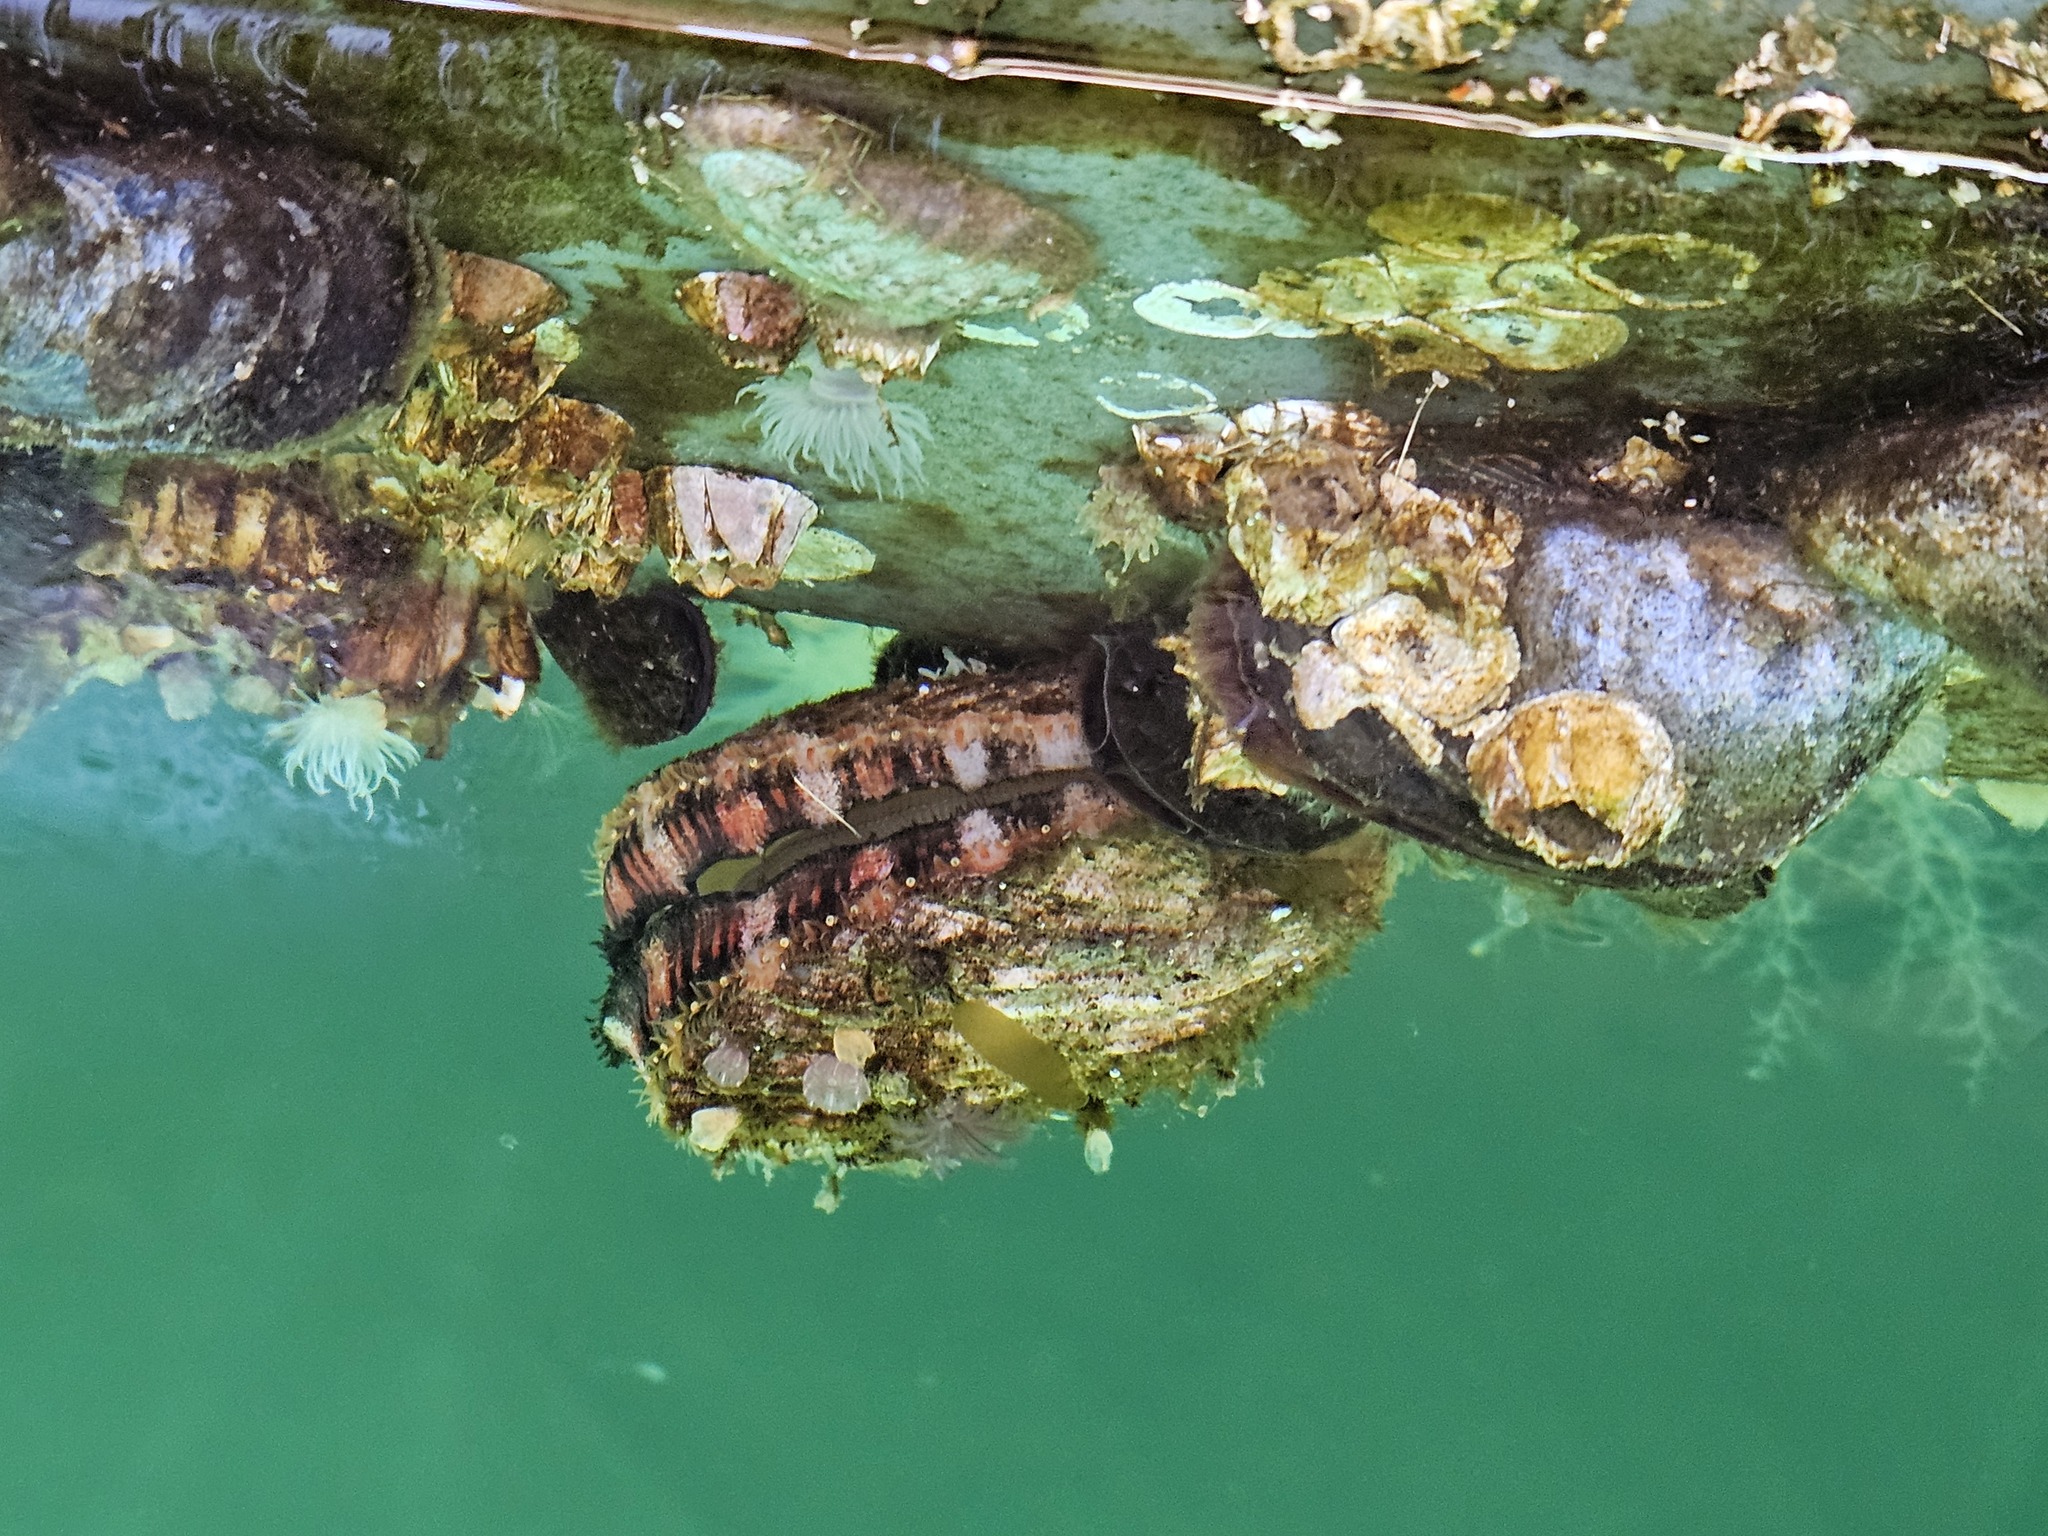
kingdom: Animalia
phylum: Mollusca
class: Bivalvia
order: Pectinida
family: Pectinidae
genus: Chlamys
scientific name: Chlamys hastata
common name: Spear scallop
